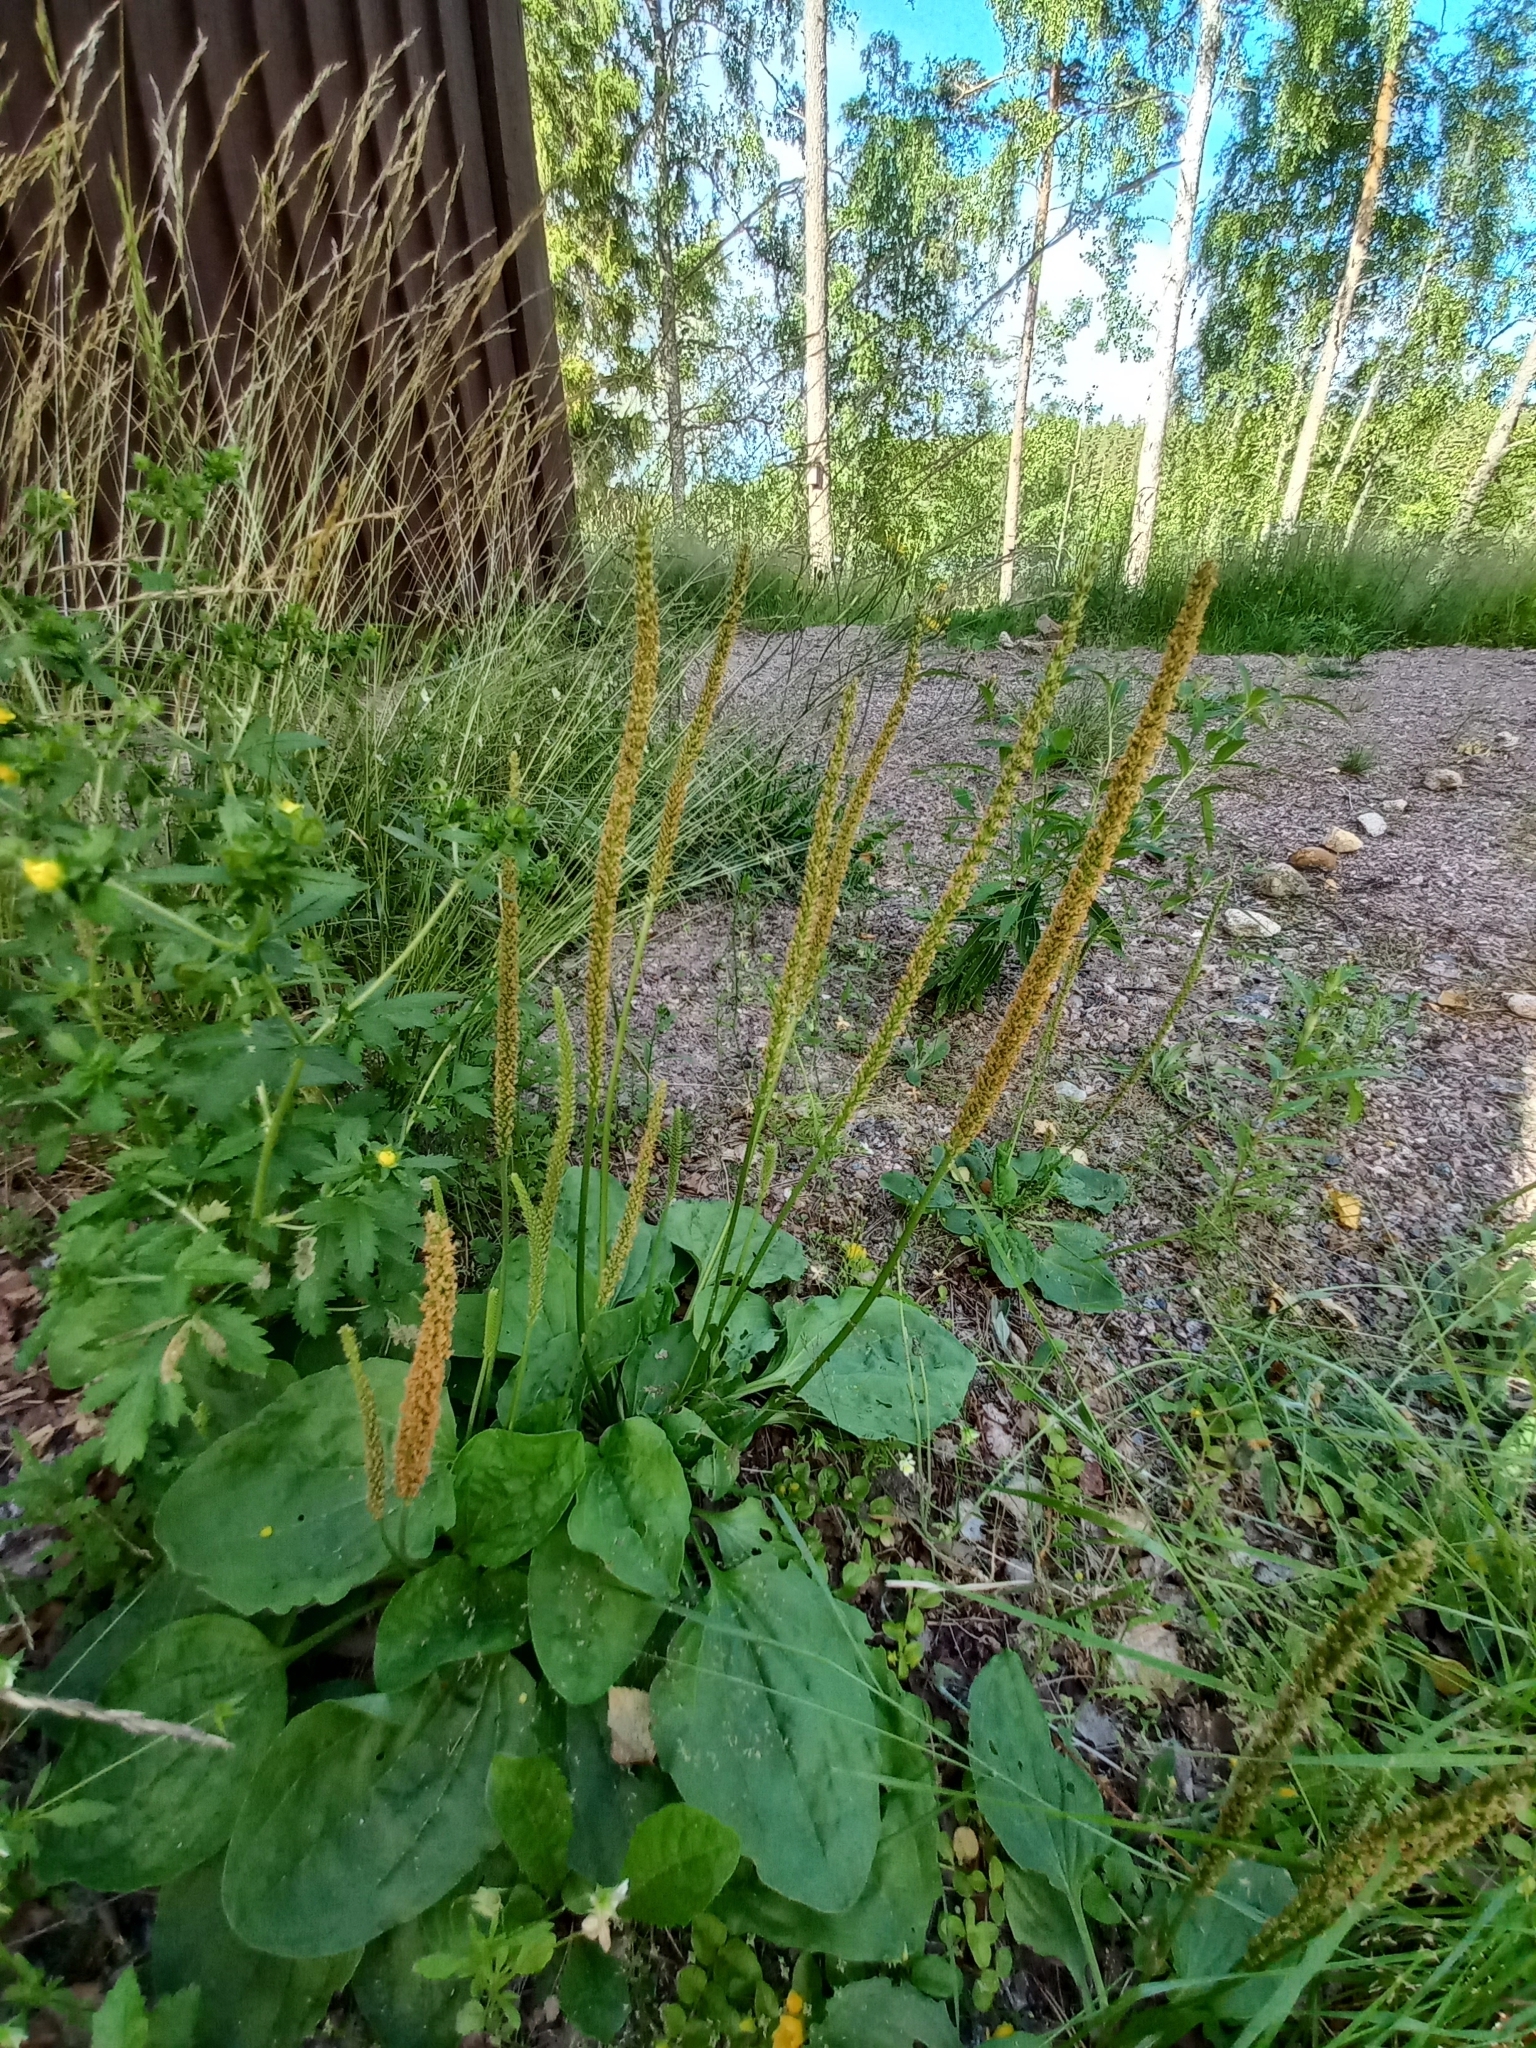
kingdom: Plantae
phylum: Tracheophyta
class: Magnoliopsida
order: Lamiales
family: Plantaginaceae
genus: Plantago
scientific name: Plantago major
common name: Common plantain
